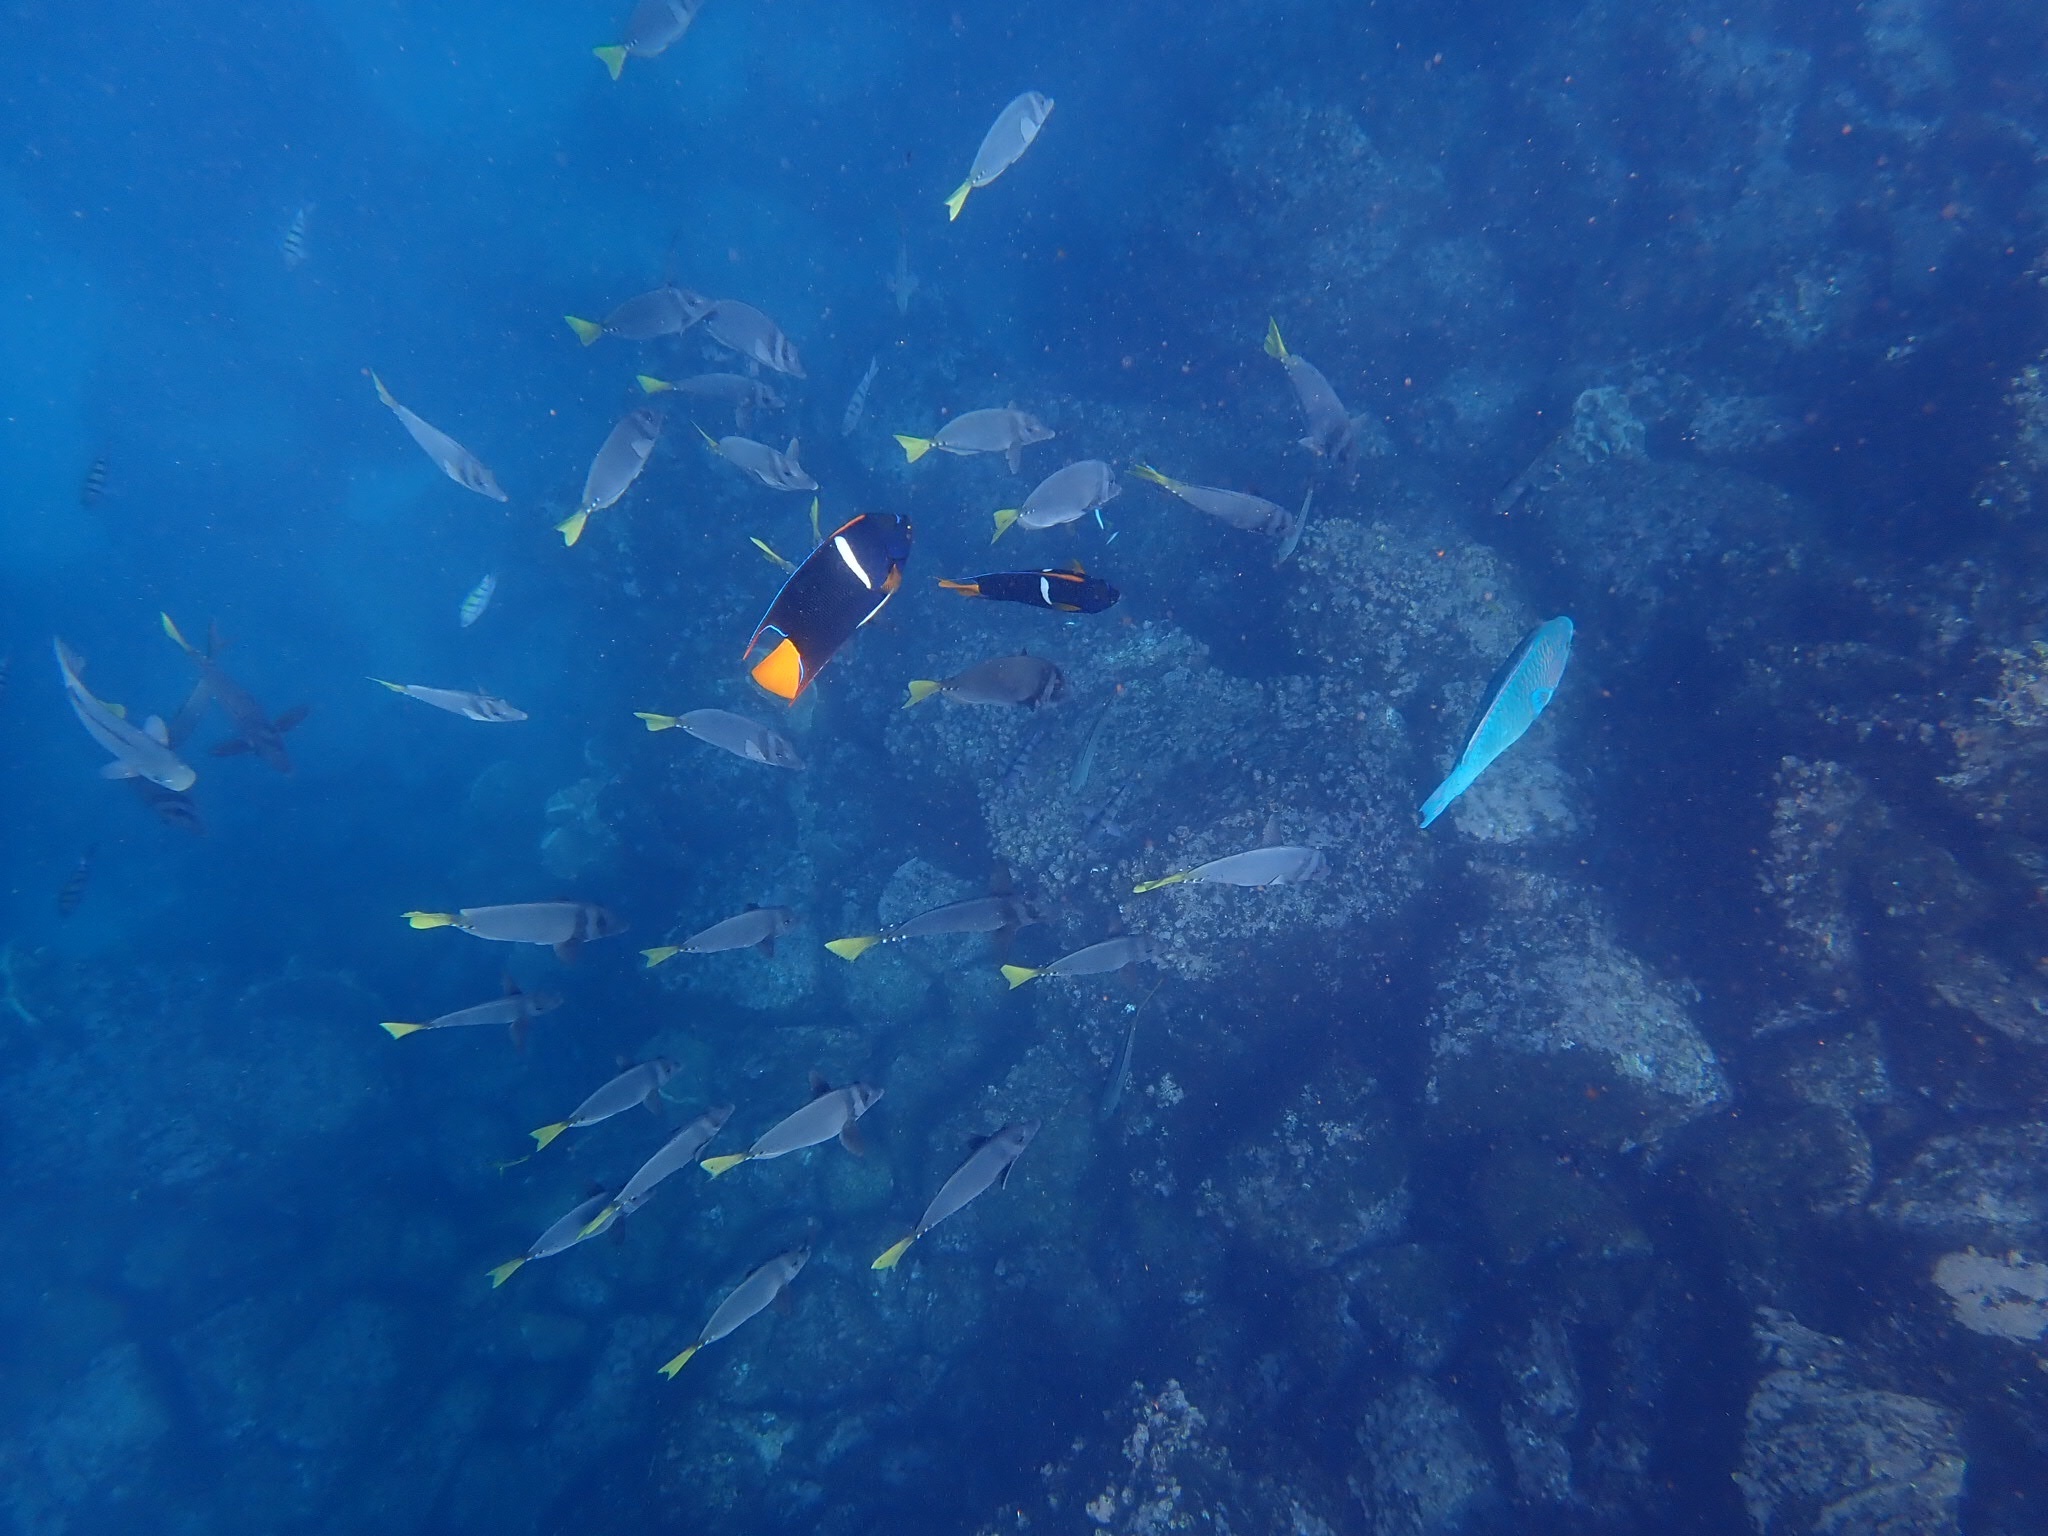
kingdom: Animalia
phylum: Chordata
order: Perciformes
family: Pomacanthidae
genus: Holacanthus
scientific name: Holacanthus passer
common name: King angelfish
